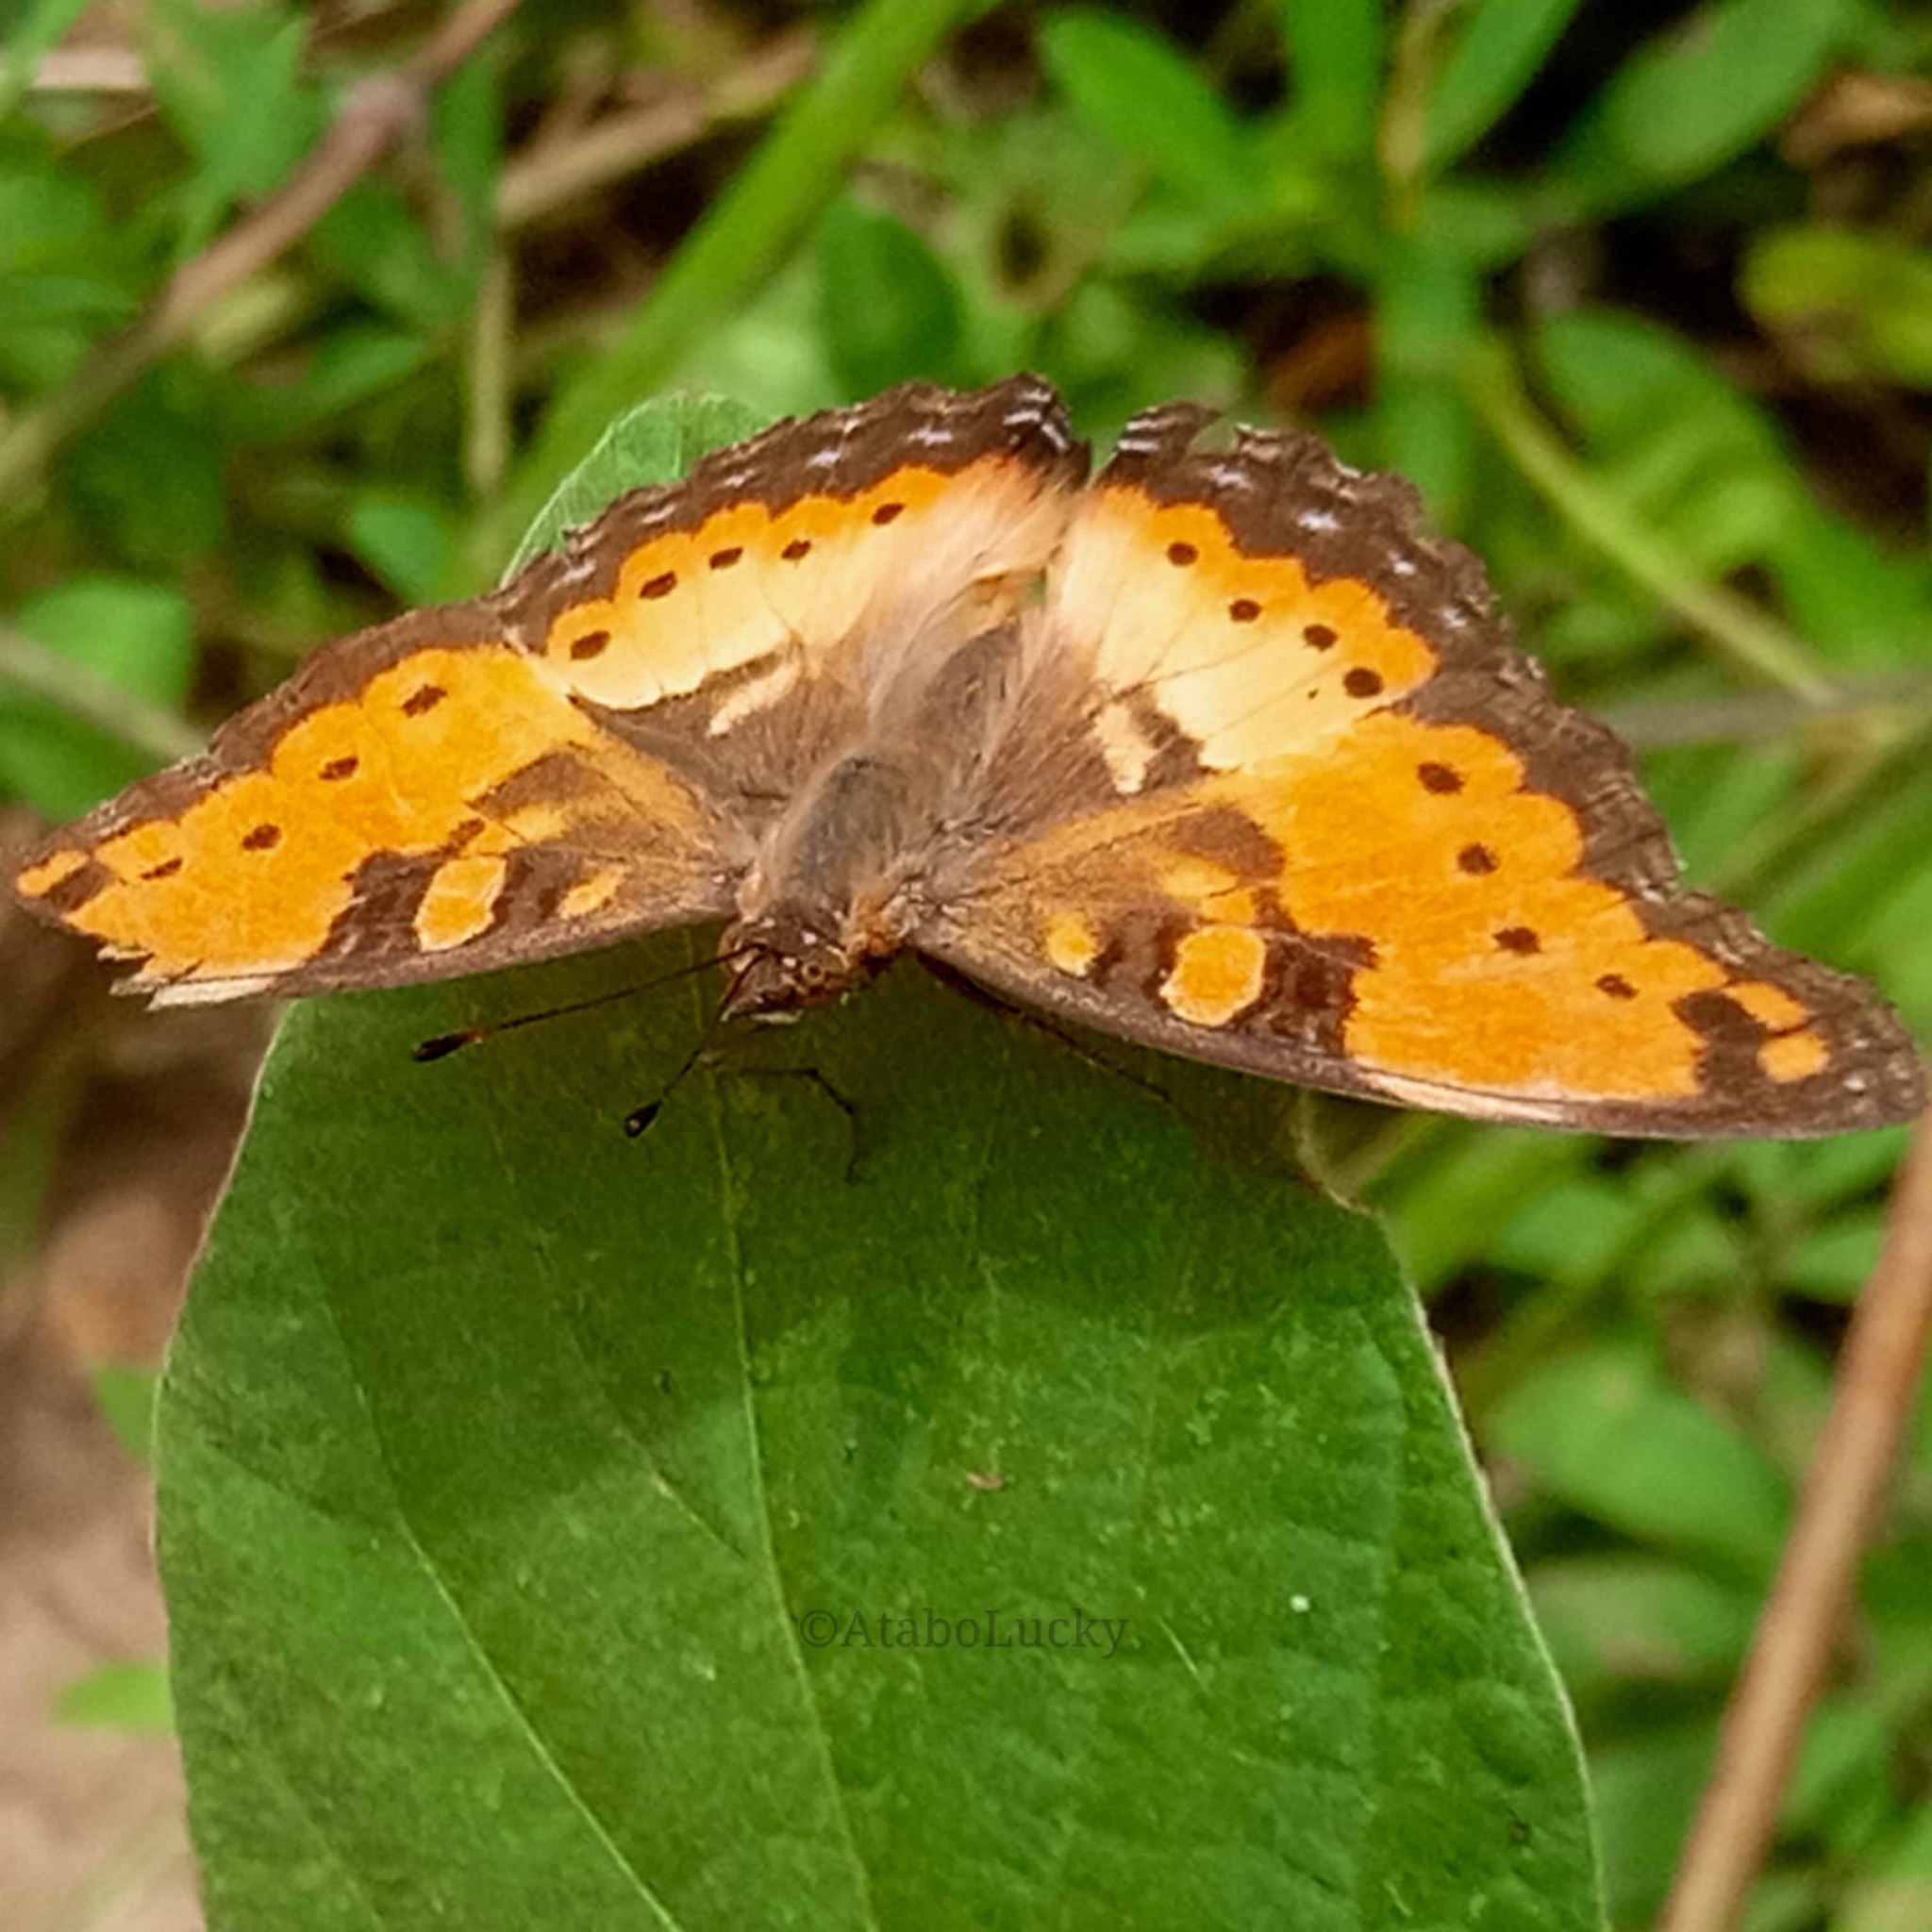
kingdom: Animalia
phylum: Arthropoda
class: Insecta
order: Lepidoptera
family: Nymphalidae
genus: Precis
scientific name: Precis octavia
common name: Gaudy commodore
